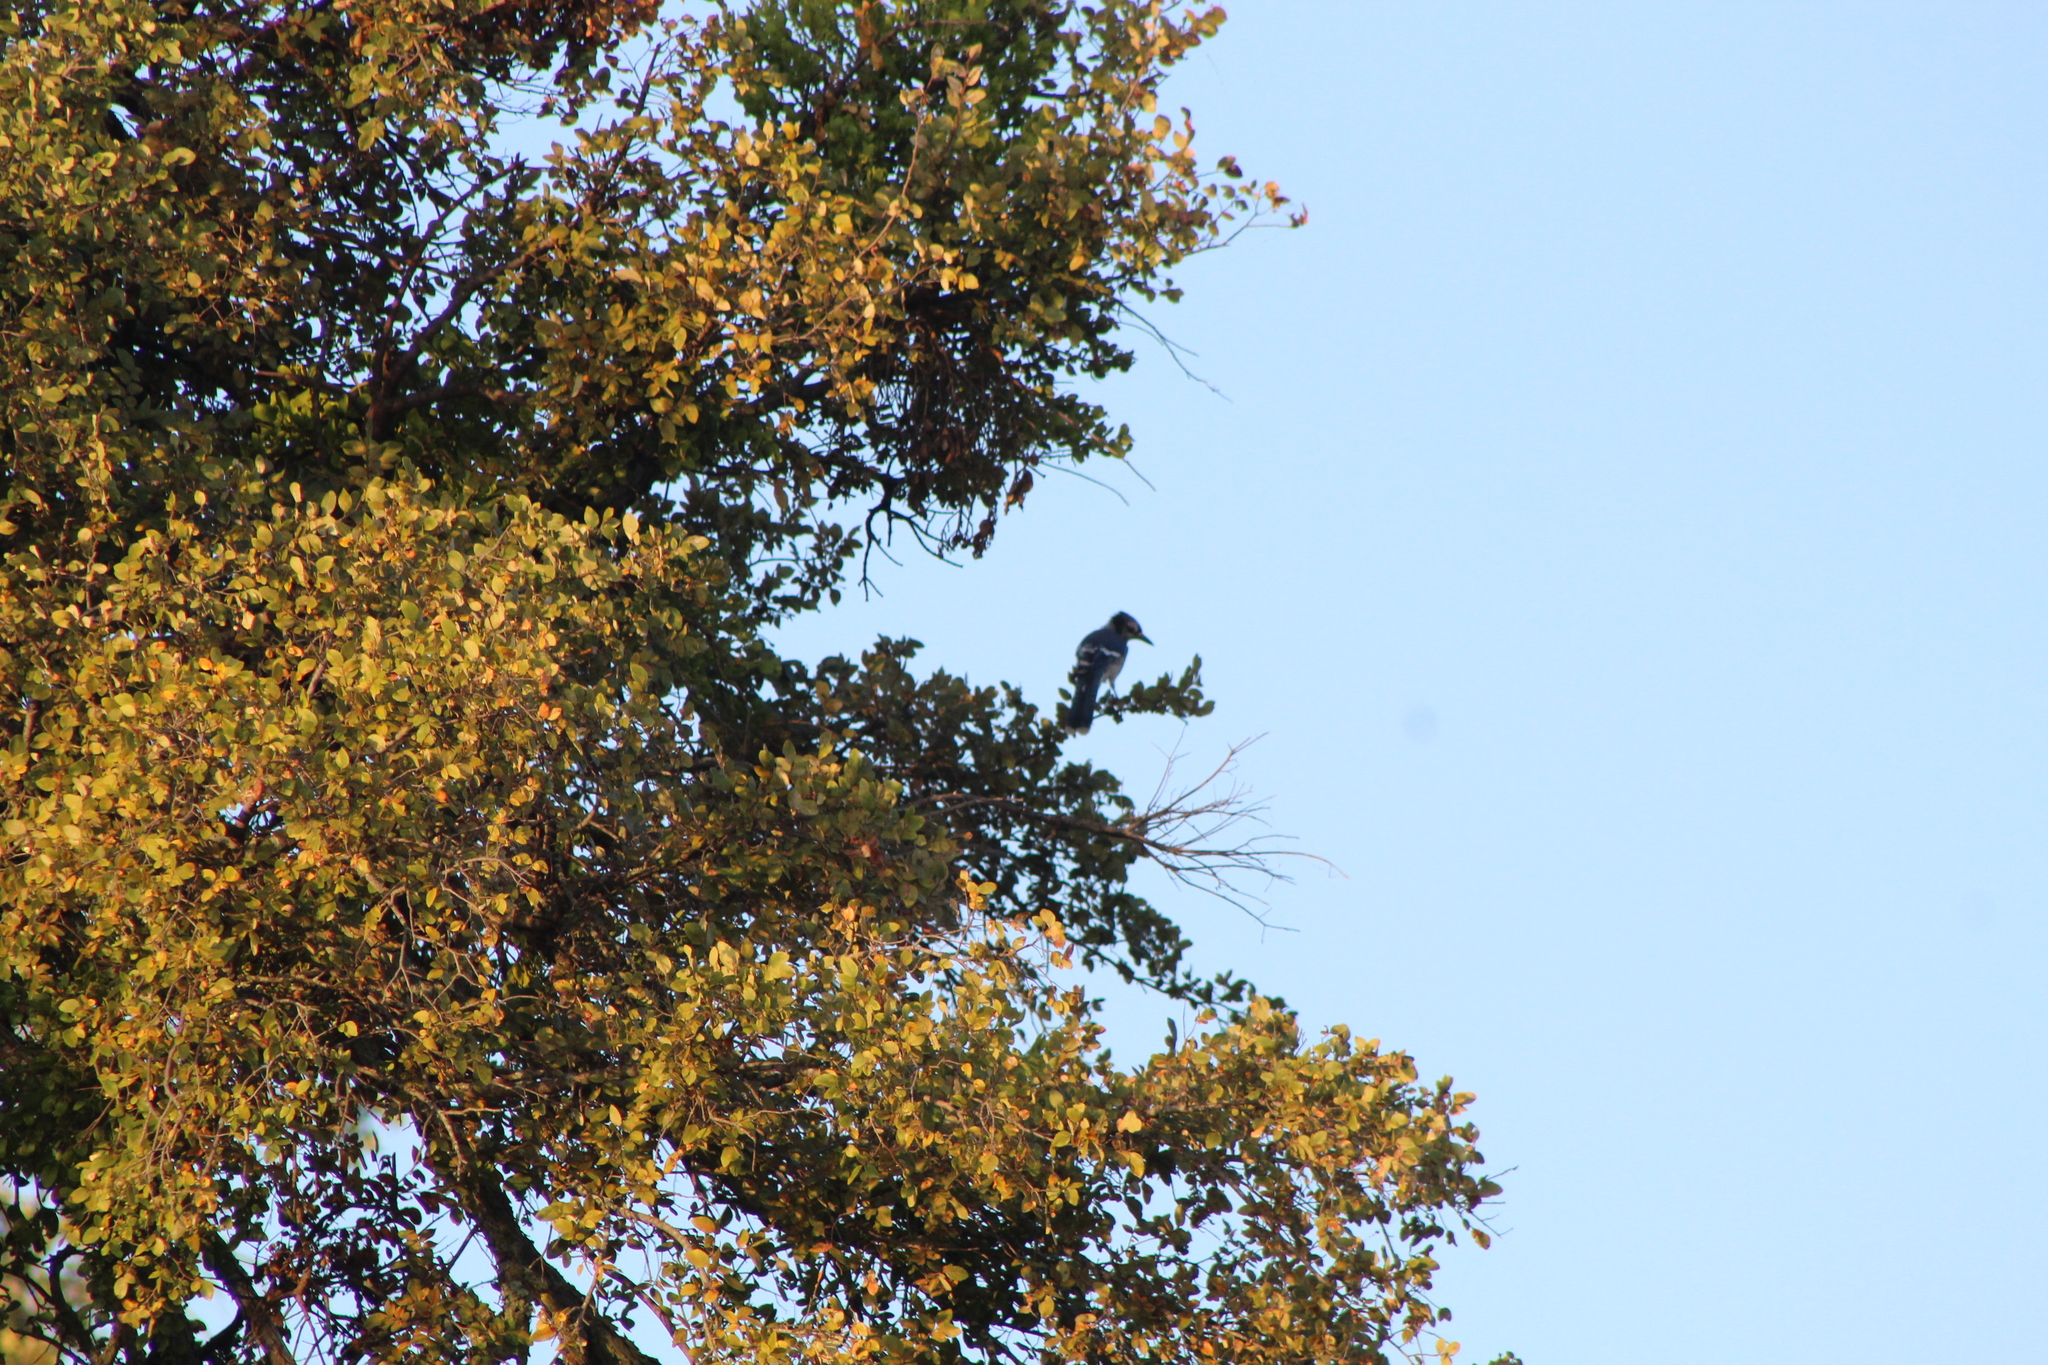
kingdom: Animalia
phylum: Chordata
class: Aves
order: Passeriformes
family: Corvidae
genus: Cyanocitta
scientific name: Cyanocitta cristata
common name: Blue jay
